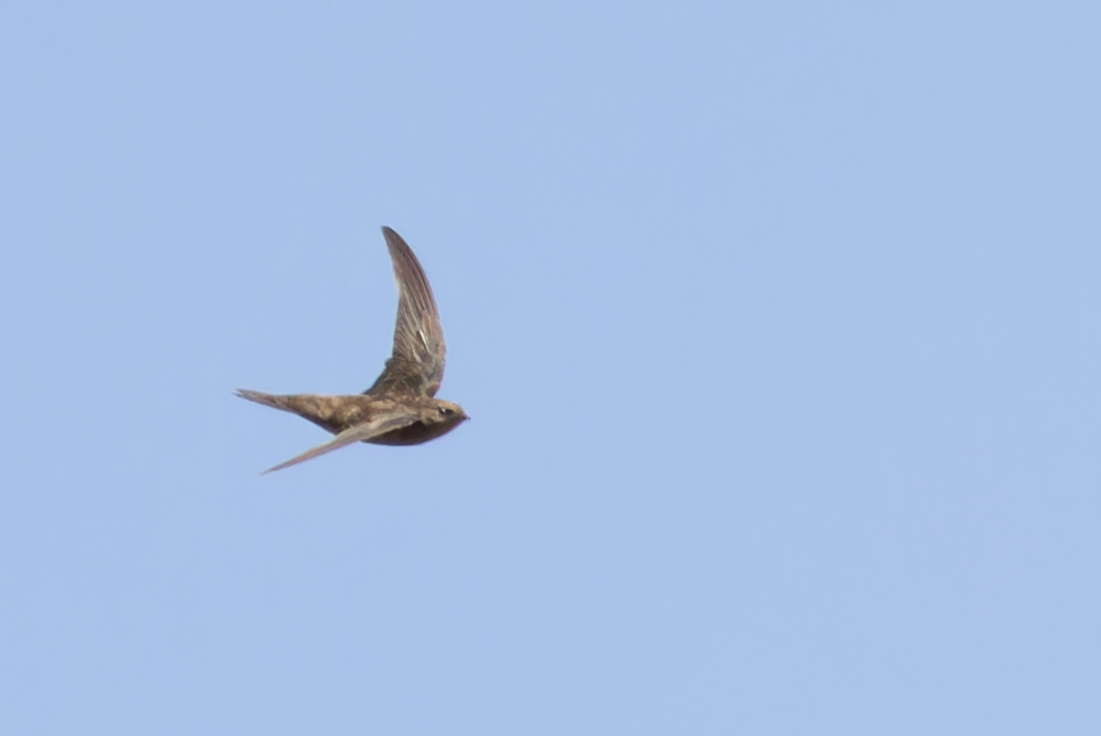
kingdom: Animalia
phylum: Chordata
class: Aves
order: Apodiformes
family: Apodidae
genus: Apus
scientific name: Apus alexandri
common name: Cape verde swift
